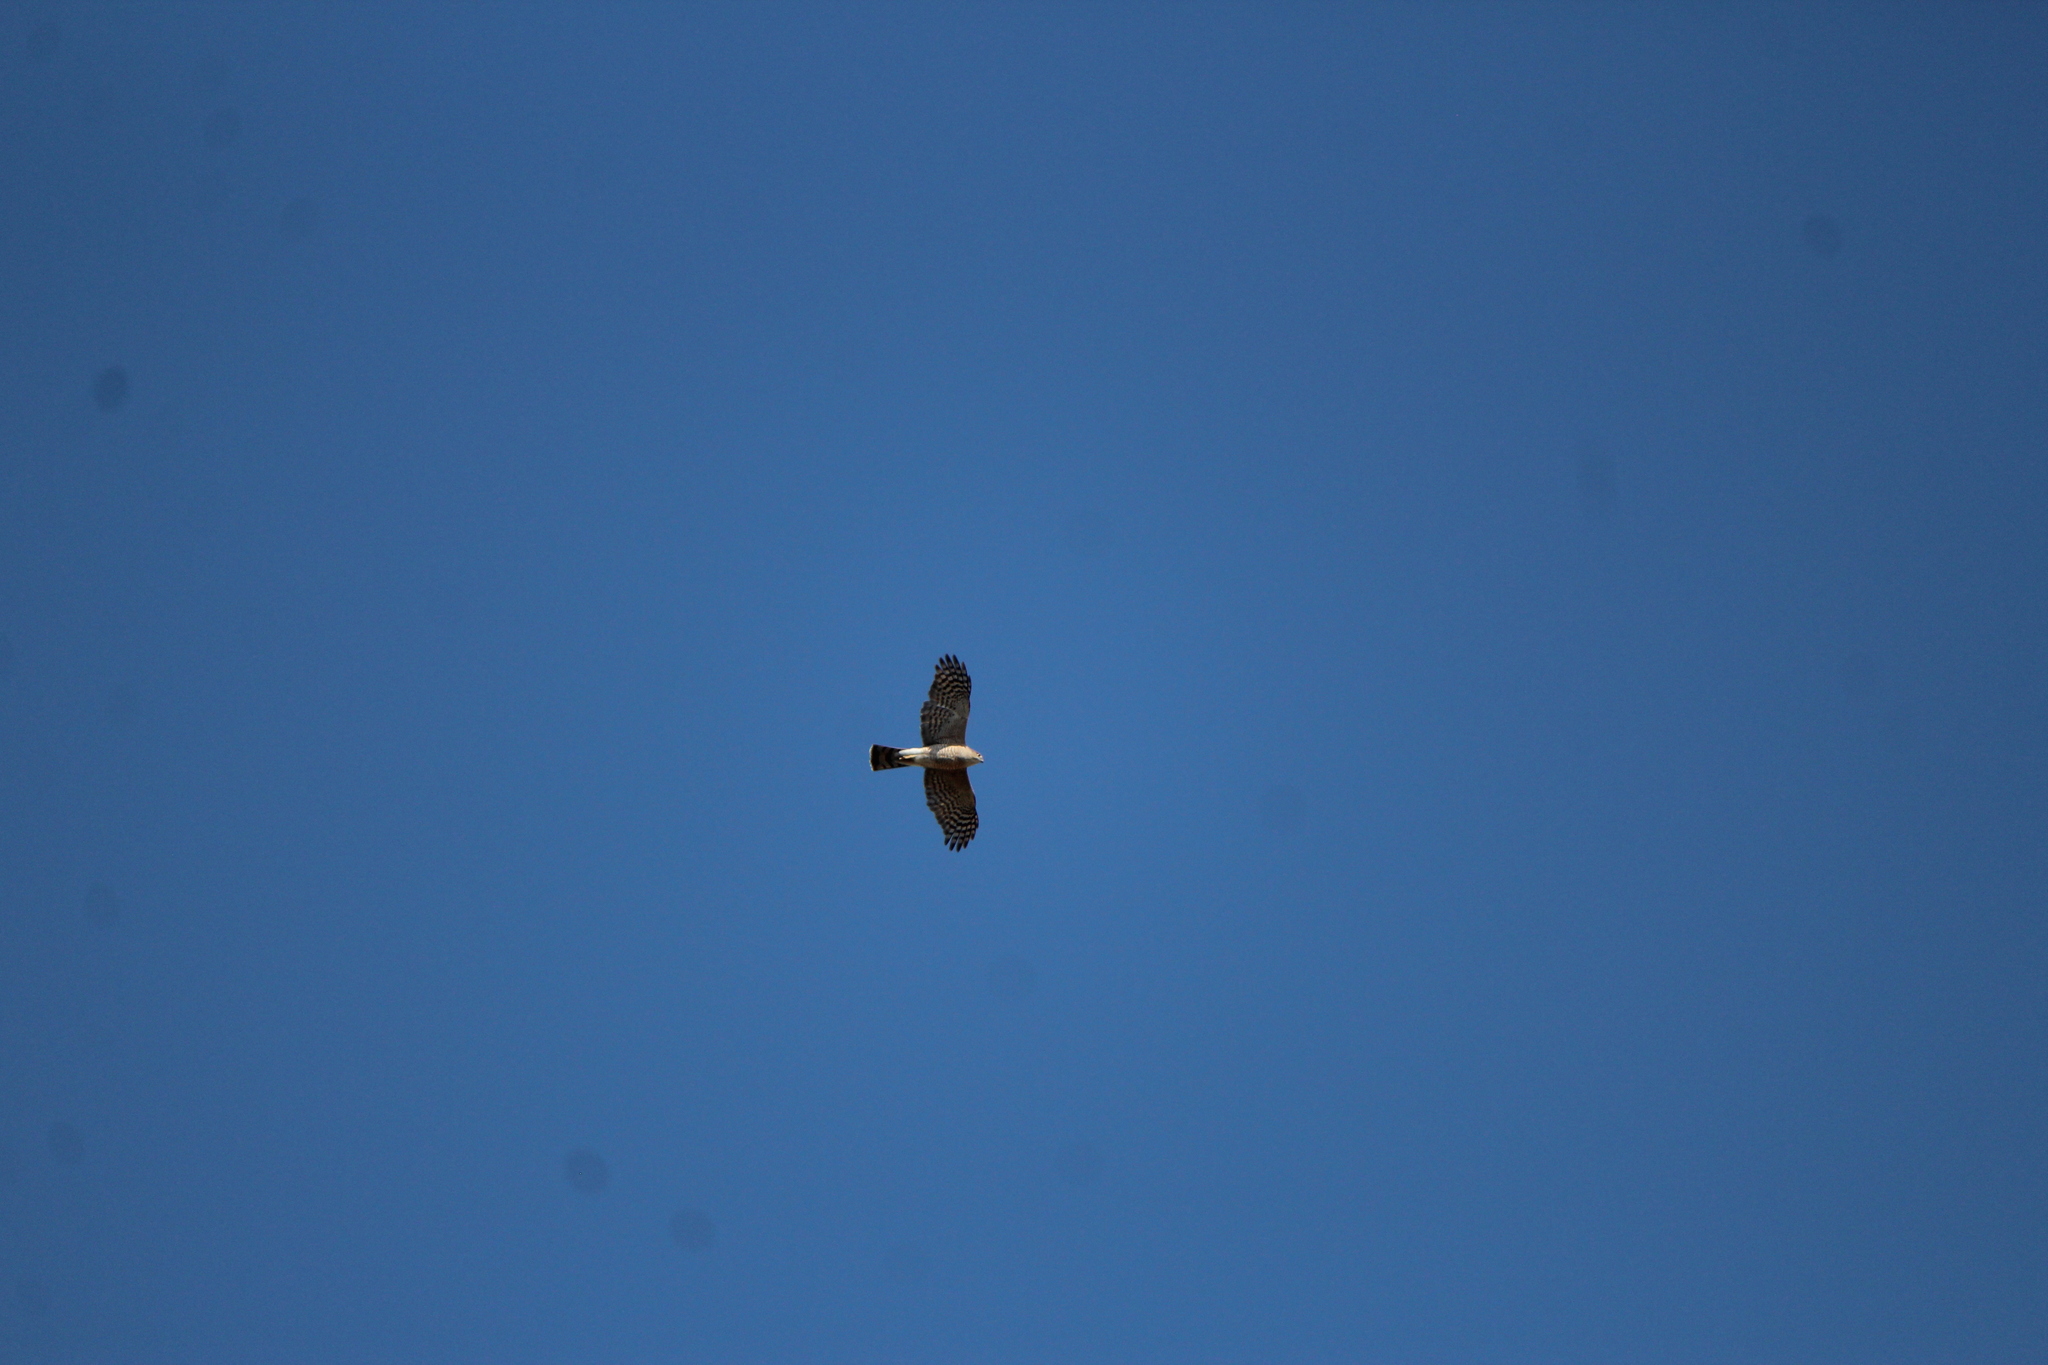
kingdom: Animalia
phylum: Chordata
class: Aves
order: Accipitriformes
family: Accipitridae
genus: Accipiter
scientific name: Accipiter cooperii
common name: Cooper's hawk
